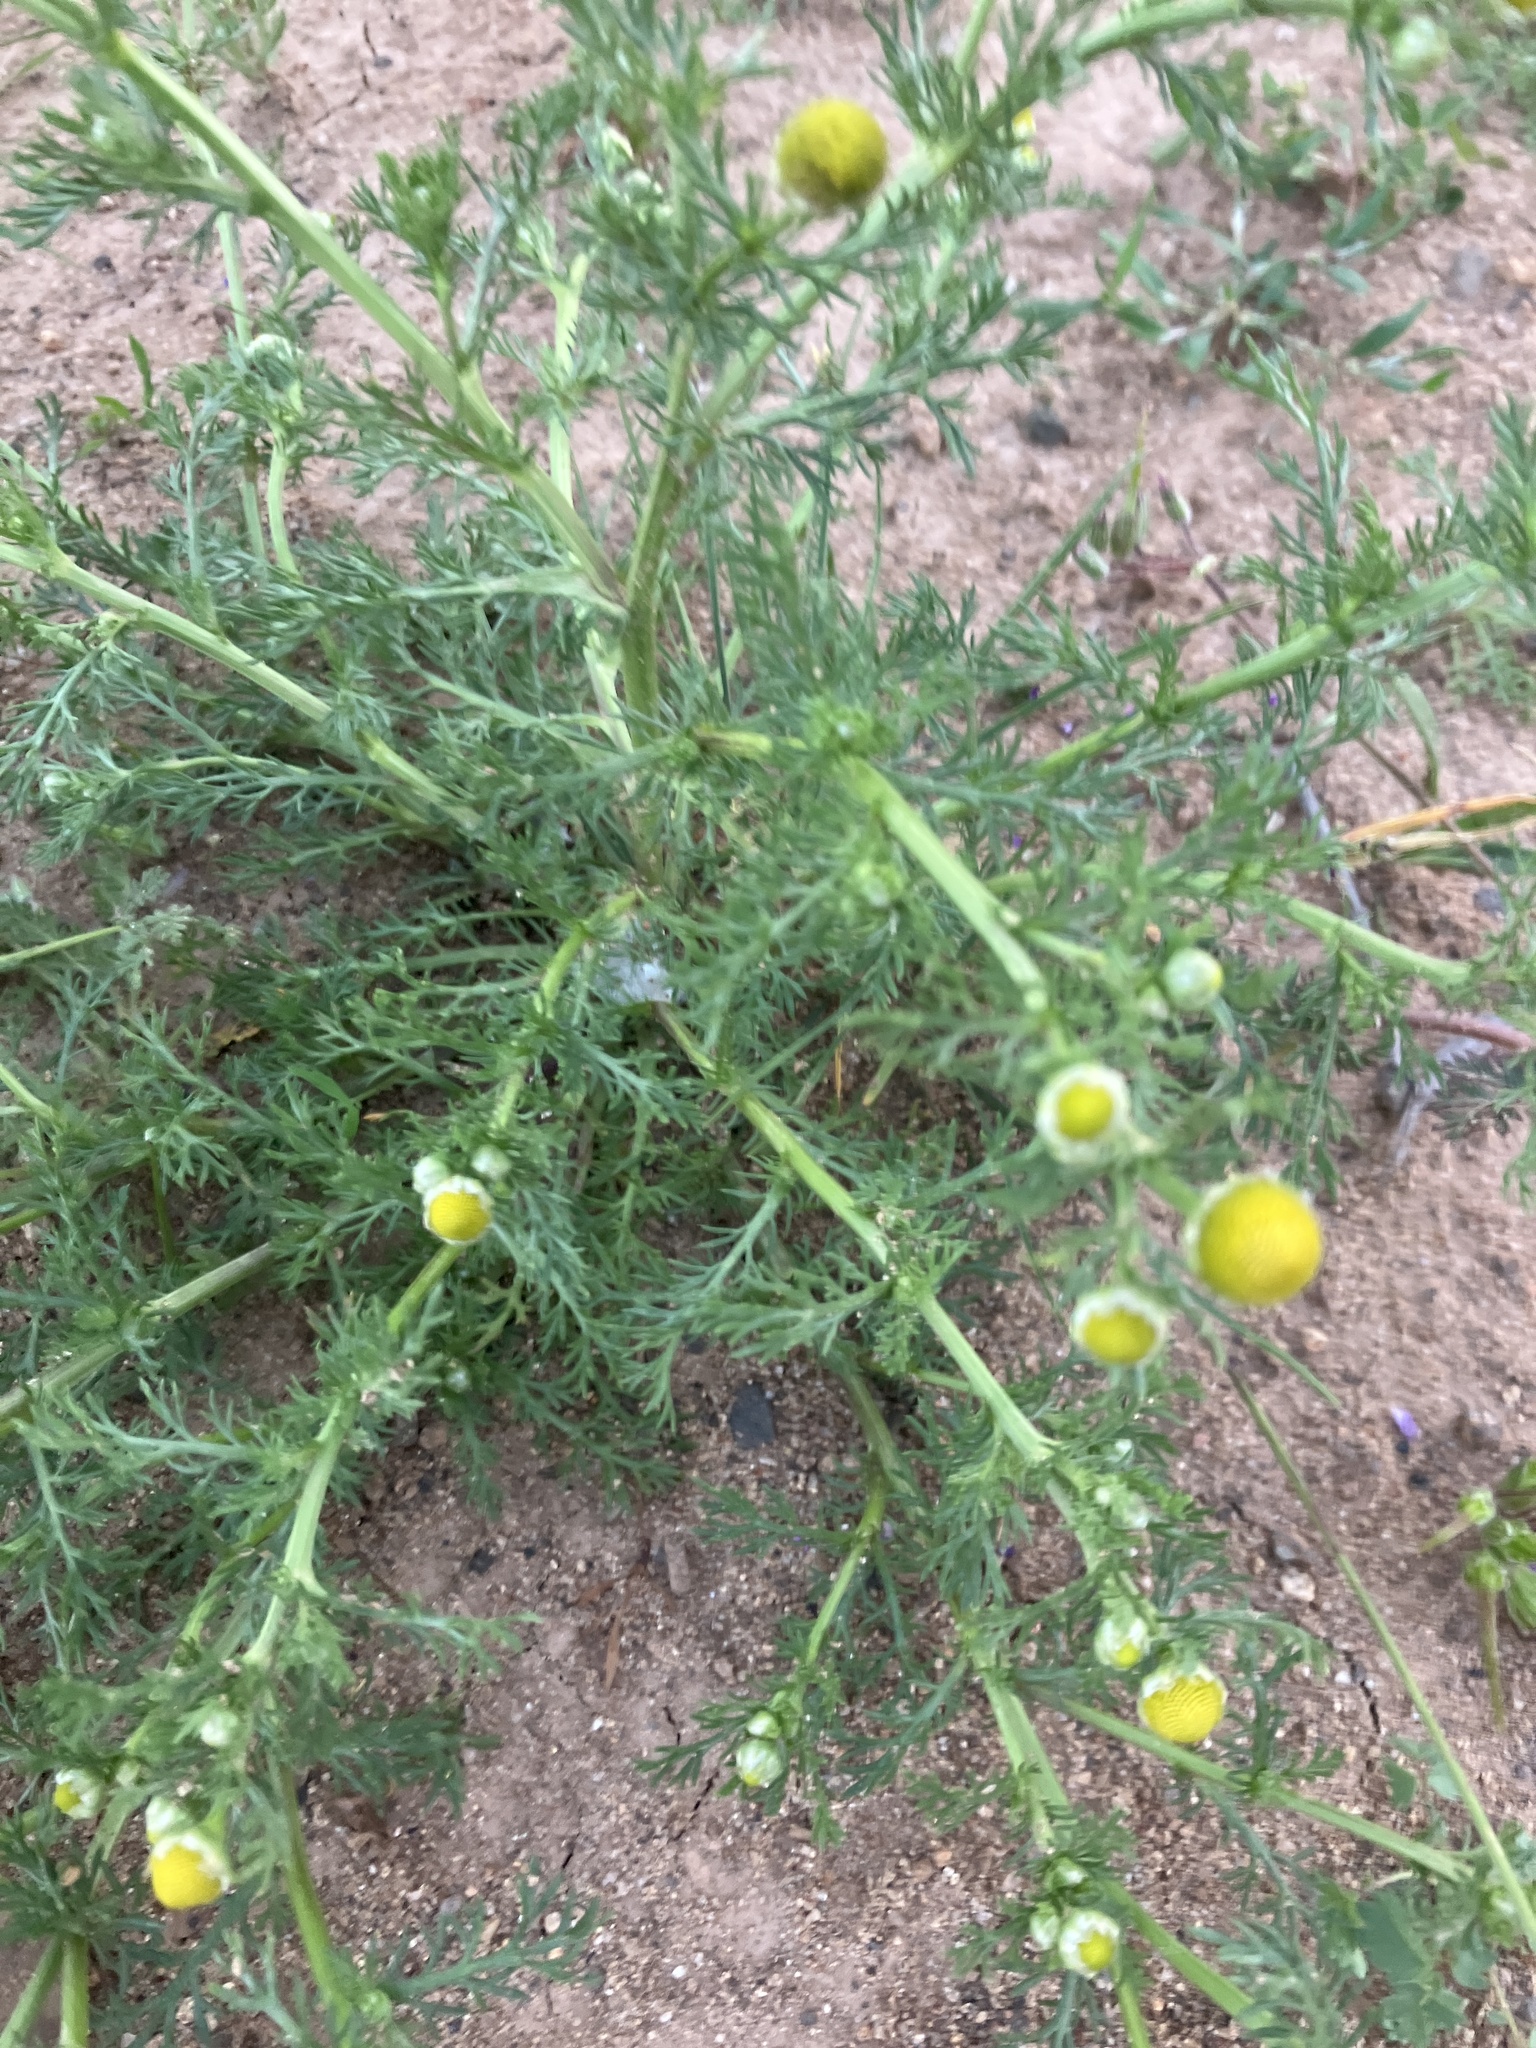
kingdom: Plantae
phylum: Tracheophyta
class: Magnoliopsida
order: Asterales
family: Asteraceae
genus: Matricaria
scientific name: Matricaria discoidea
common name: Disc mayweed
